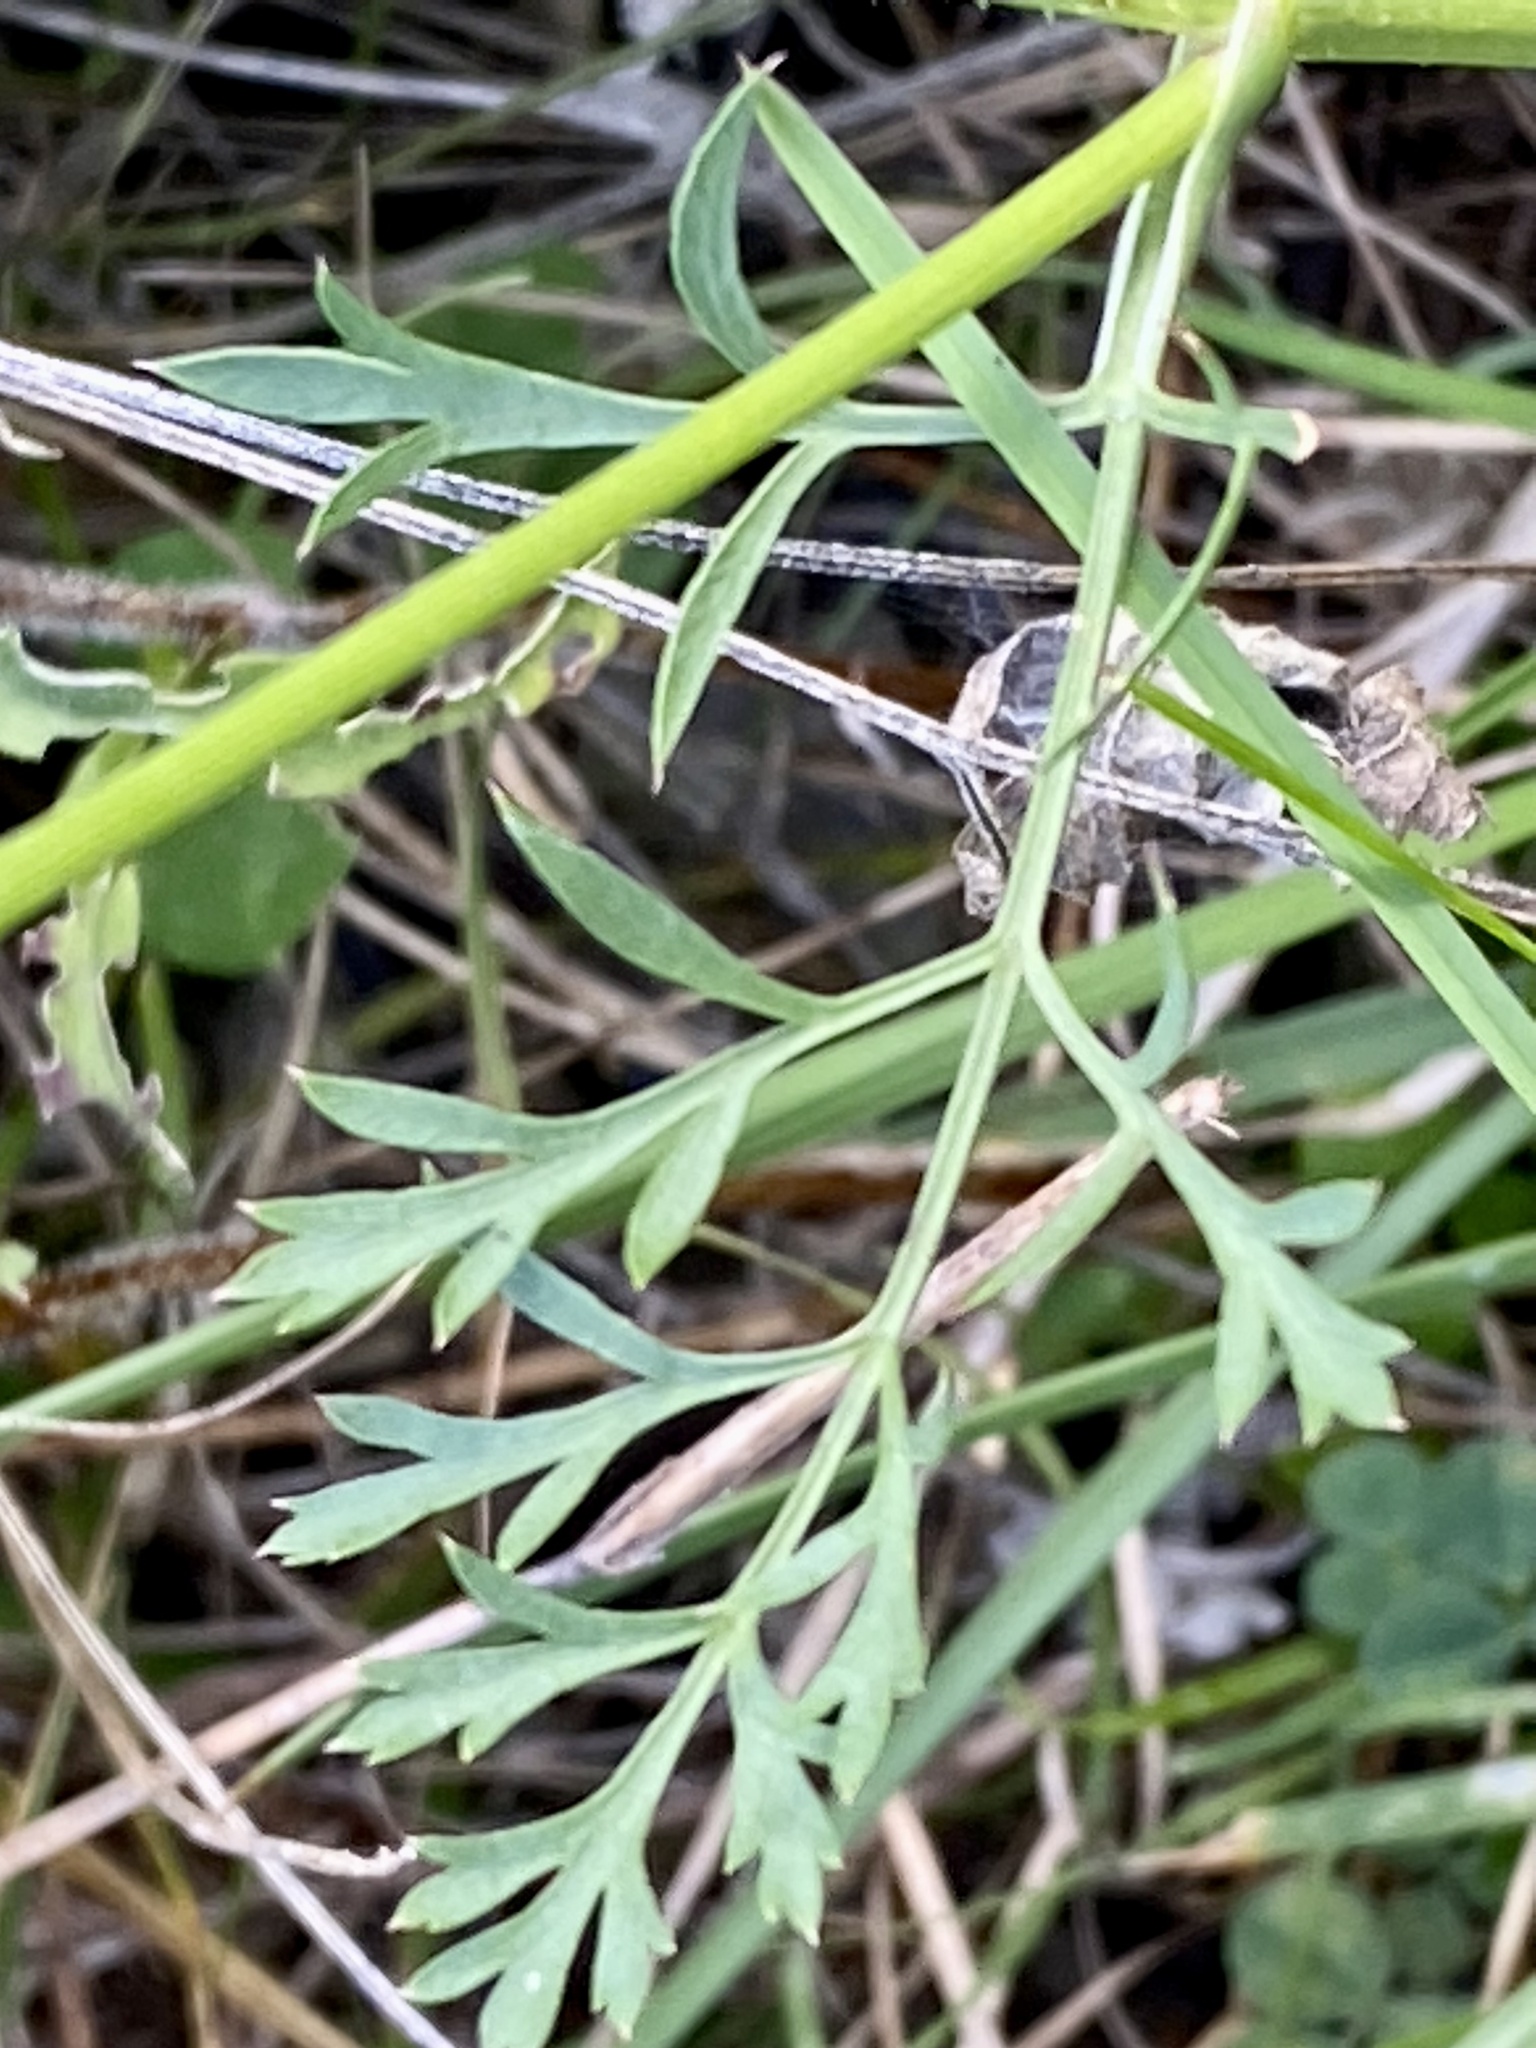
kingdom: Plantae
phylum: Tracheophyta
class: Magnoliopsida
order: Apiales
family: Apiaceae
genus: Daucus
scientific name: Daucus carota
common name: Wild carrot
